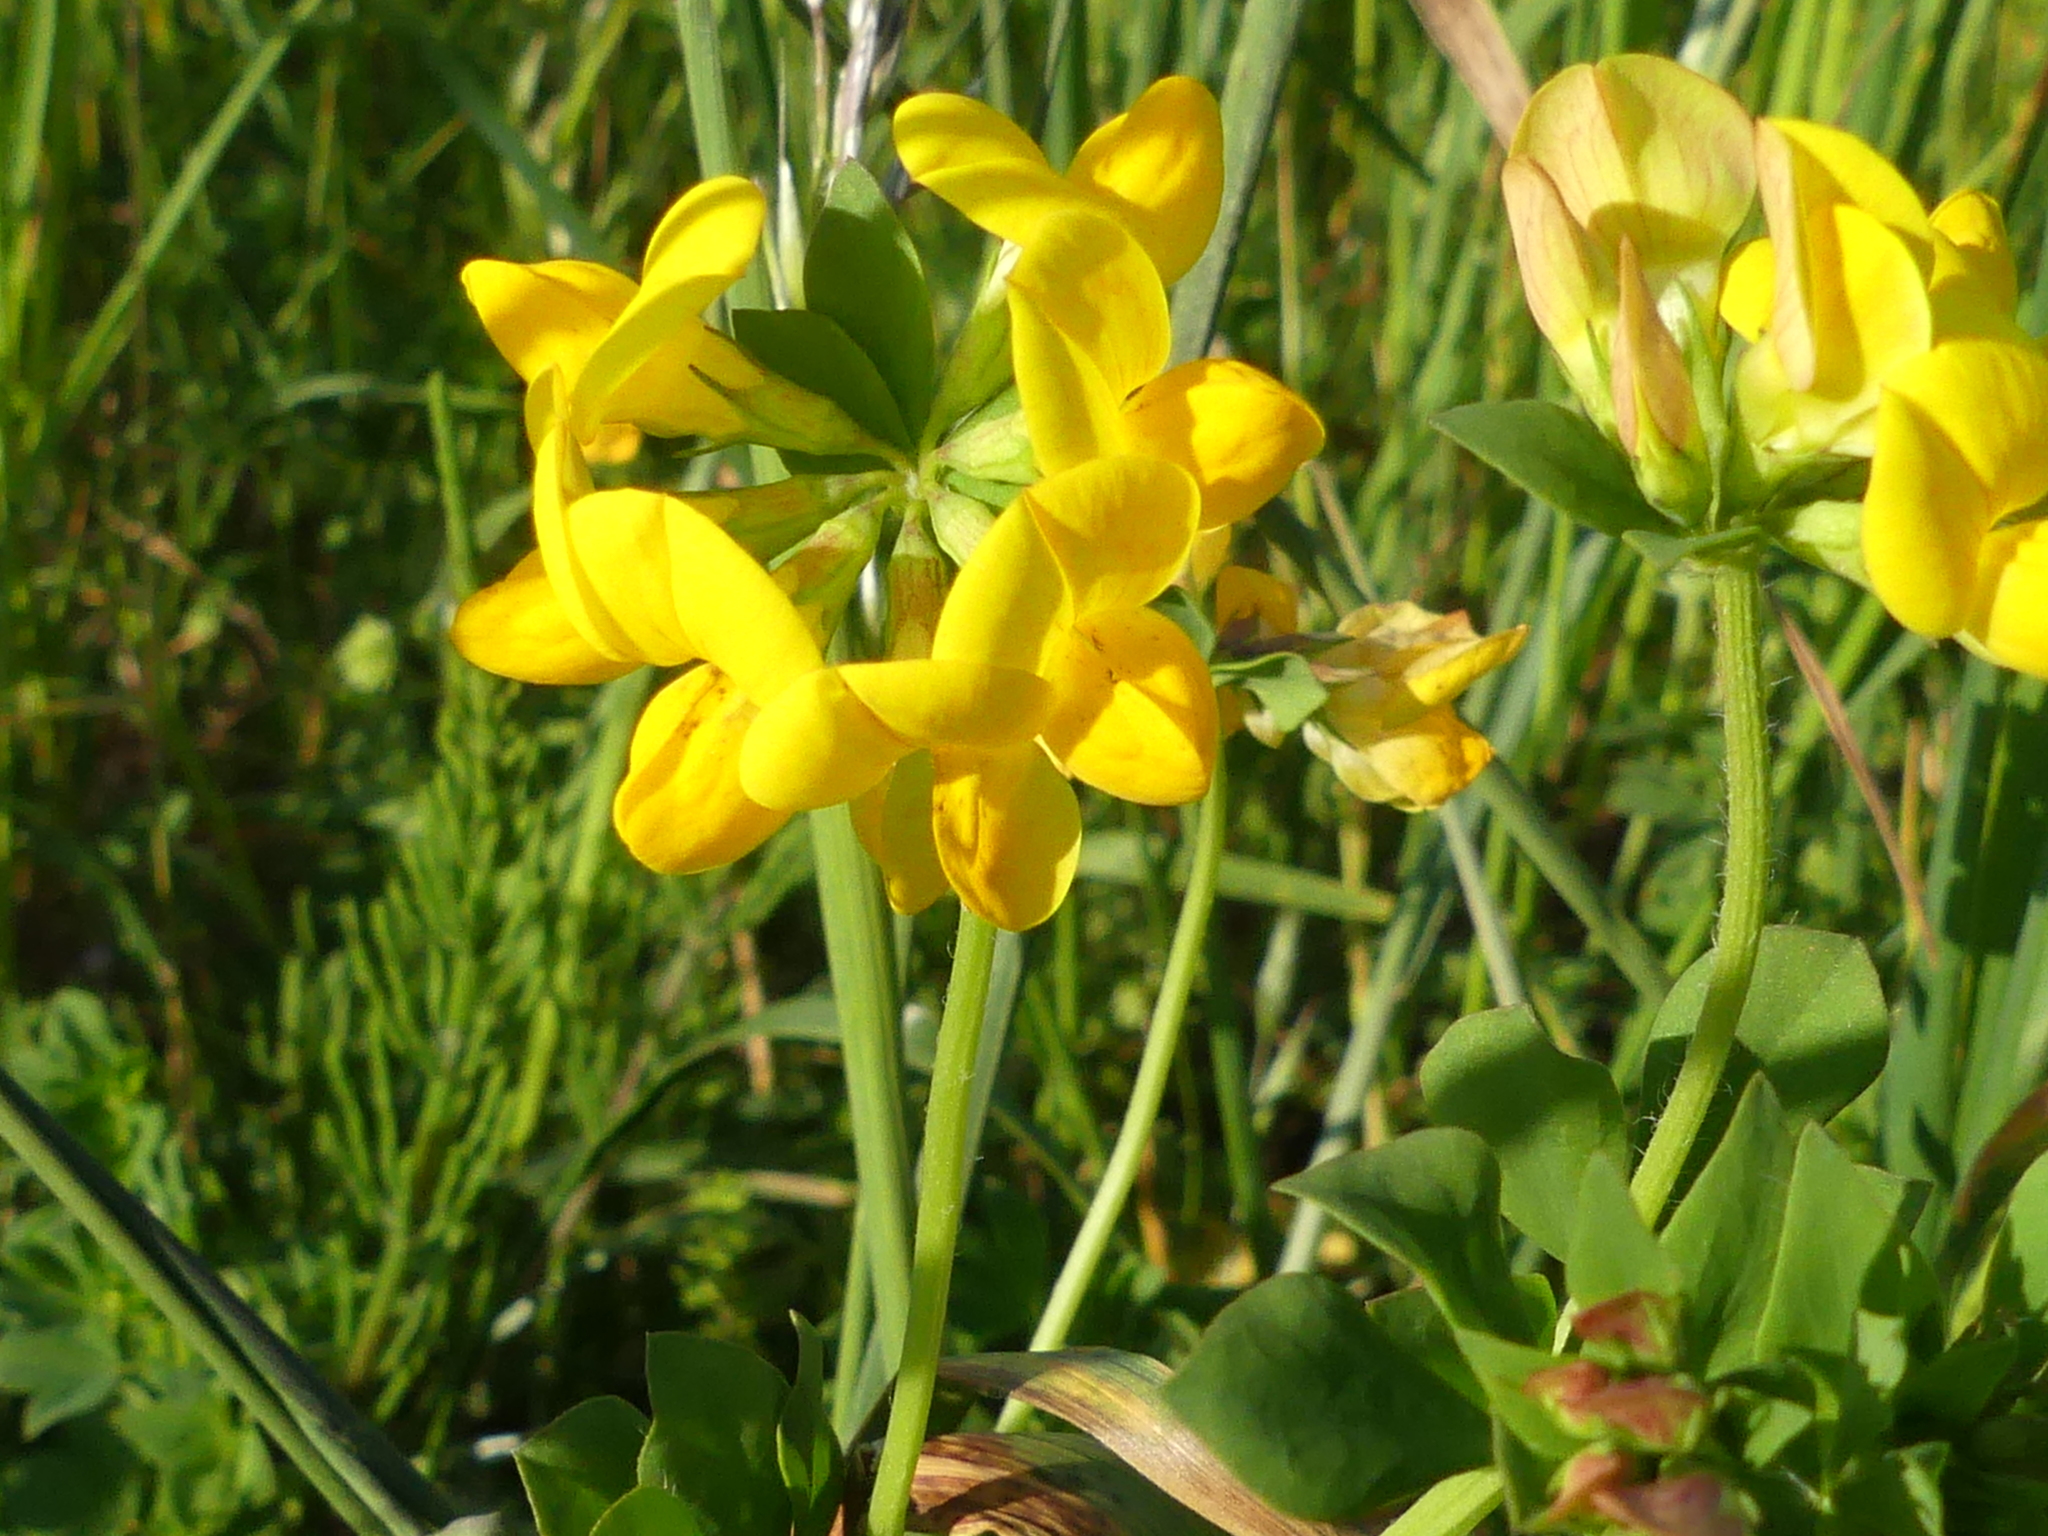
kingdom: Plantae
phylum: Tracheophyta
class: Magnoliopsida
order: Fabales
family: Fabaceae
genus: Lotus
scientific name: Lotus corniculatus
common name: Common bird's-foot-trefoil
